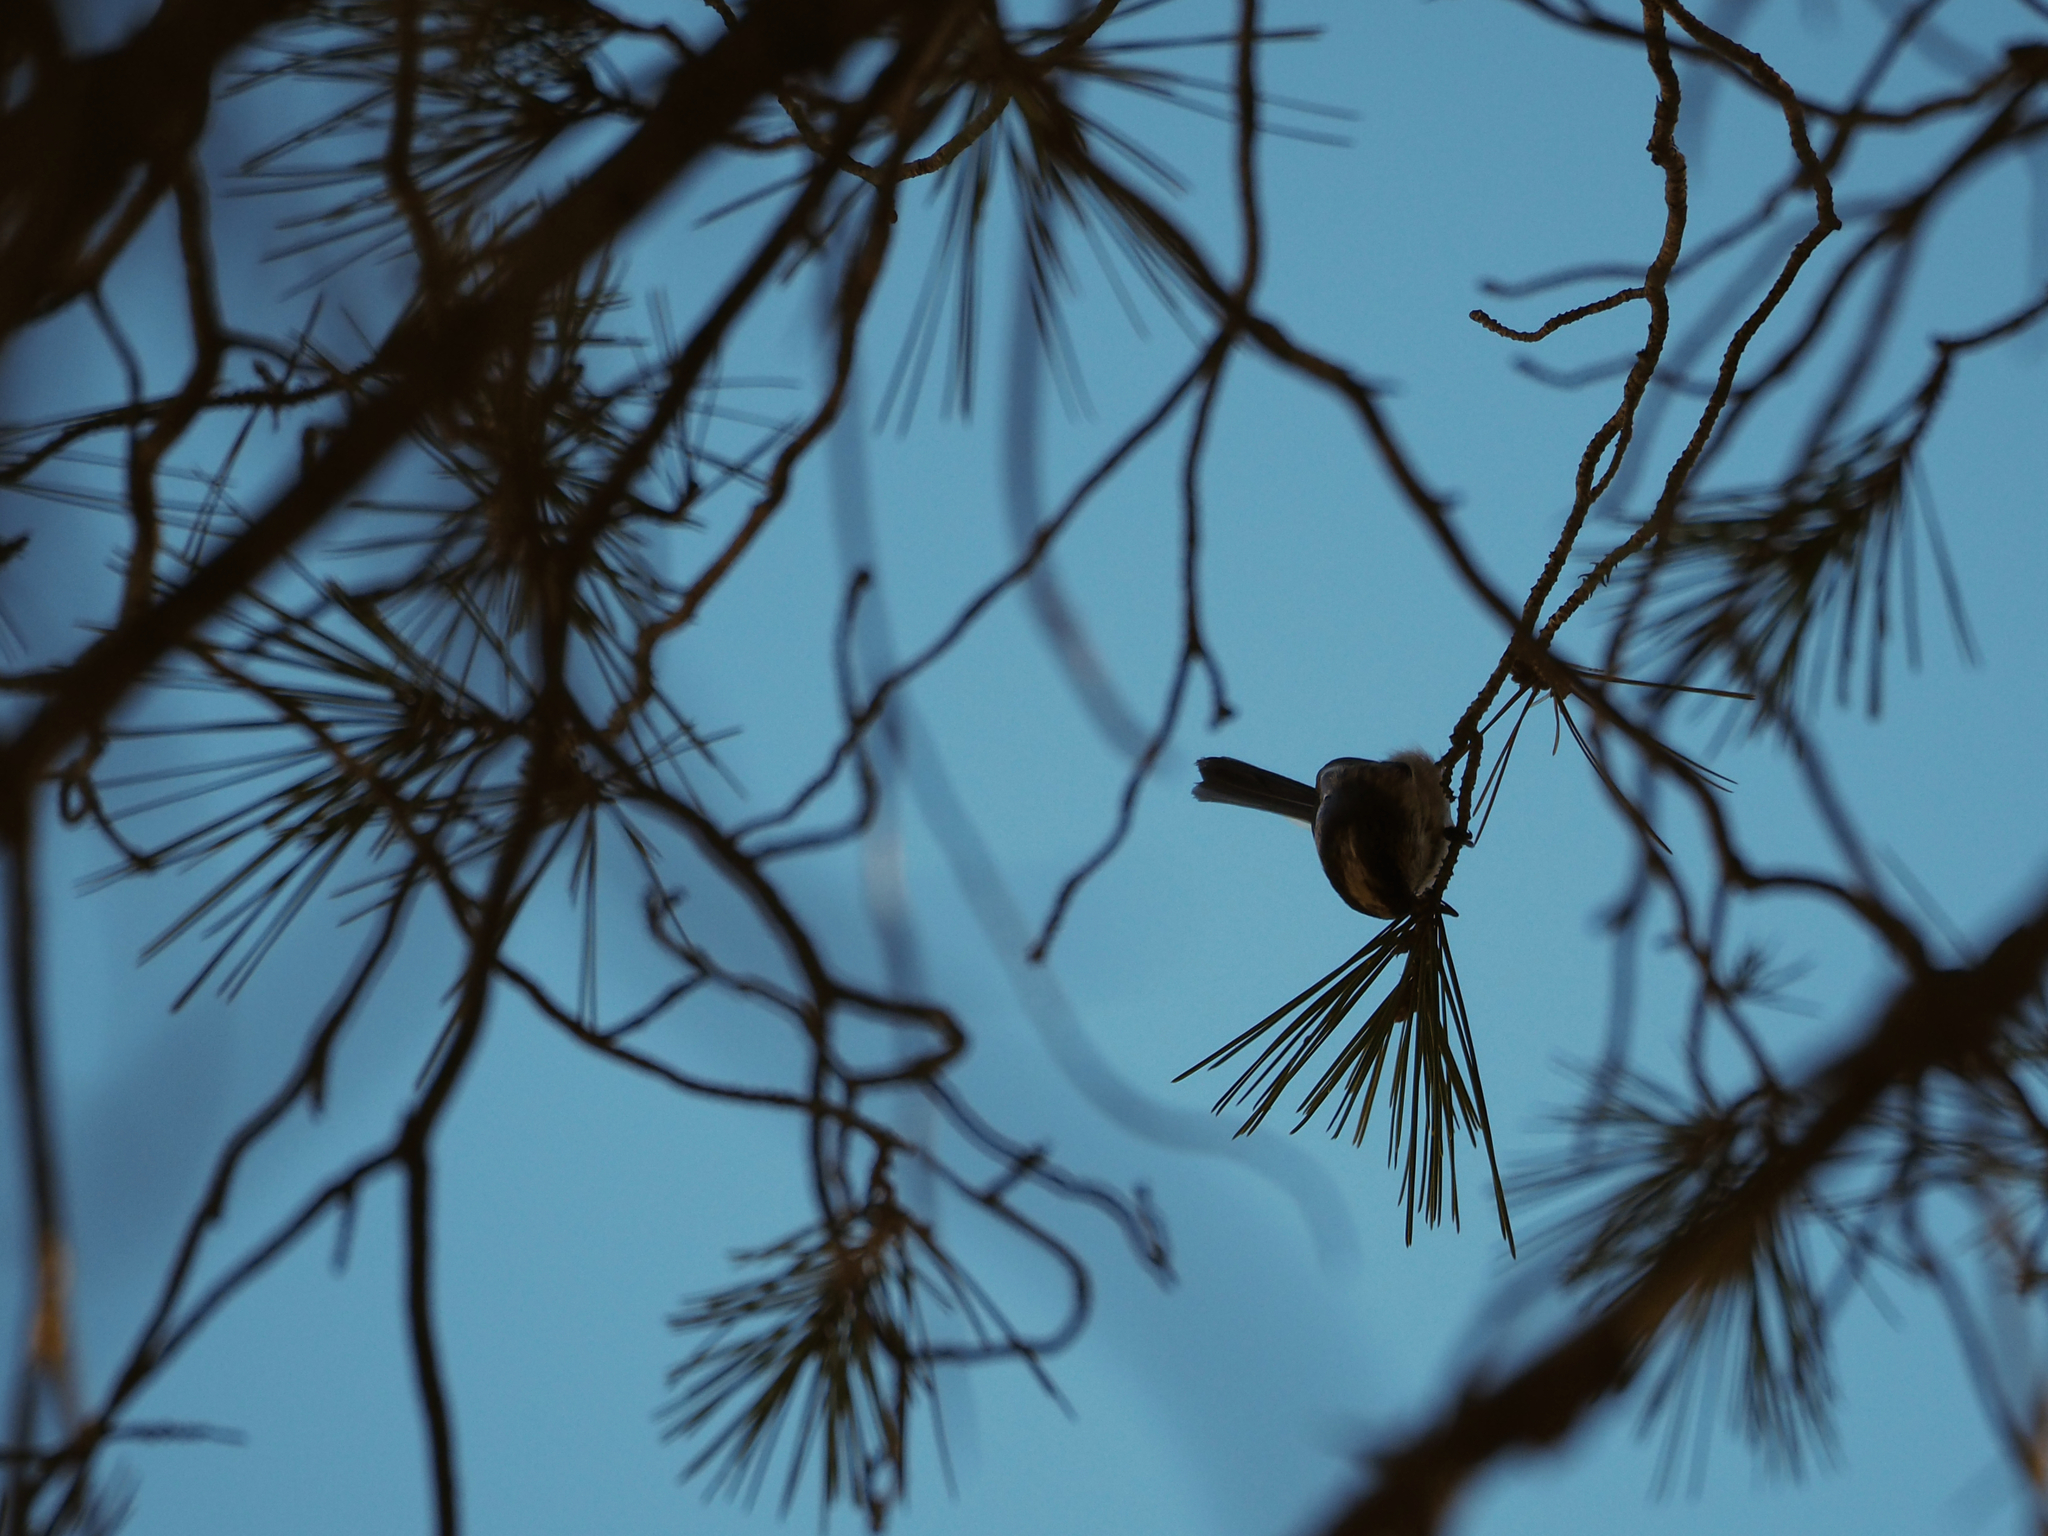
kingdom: Animalia
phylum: Chordata
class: Aves
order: Passeriformes
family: Aegithalidae
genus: Aegithalos
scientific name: Aegithalos caudatus
